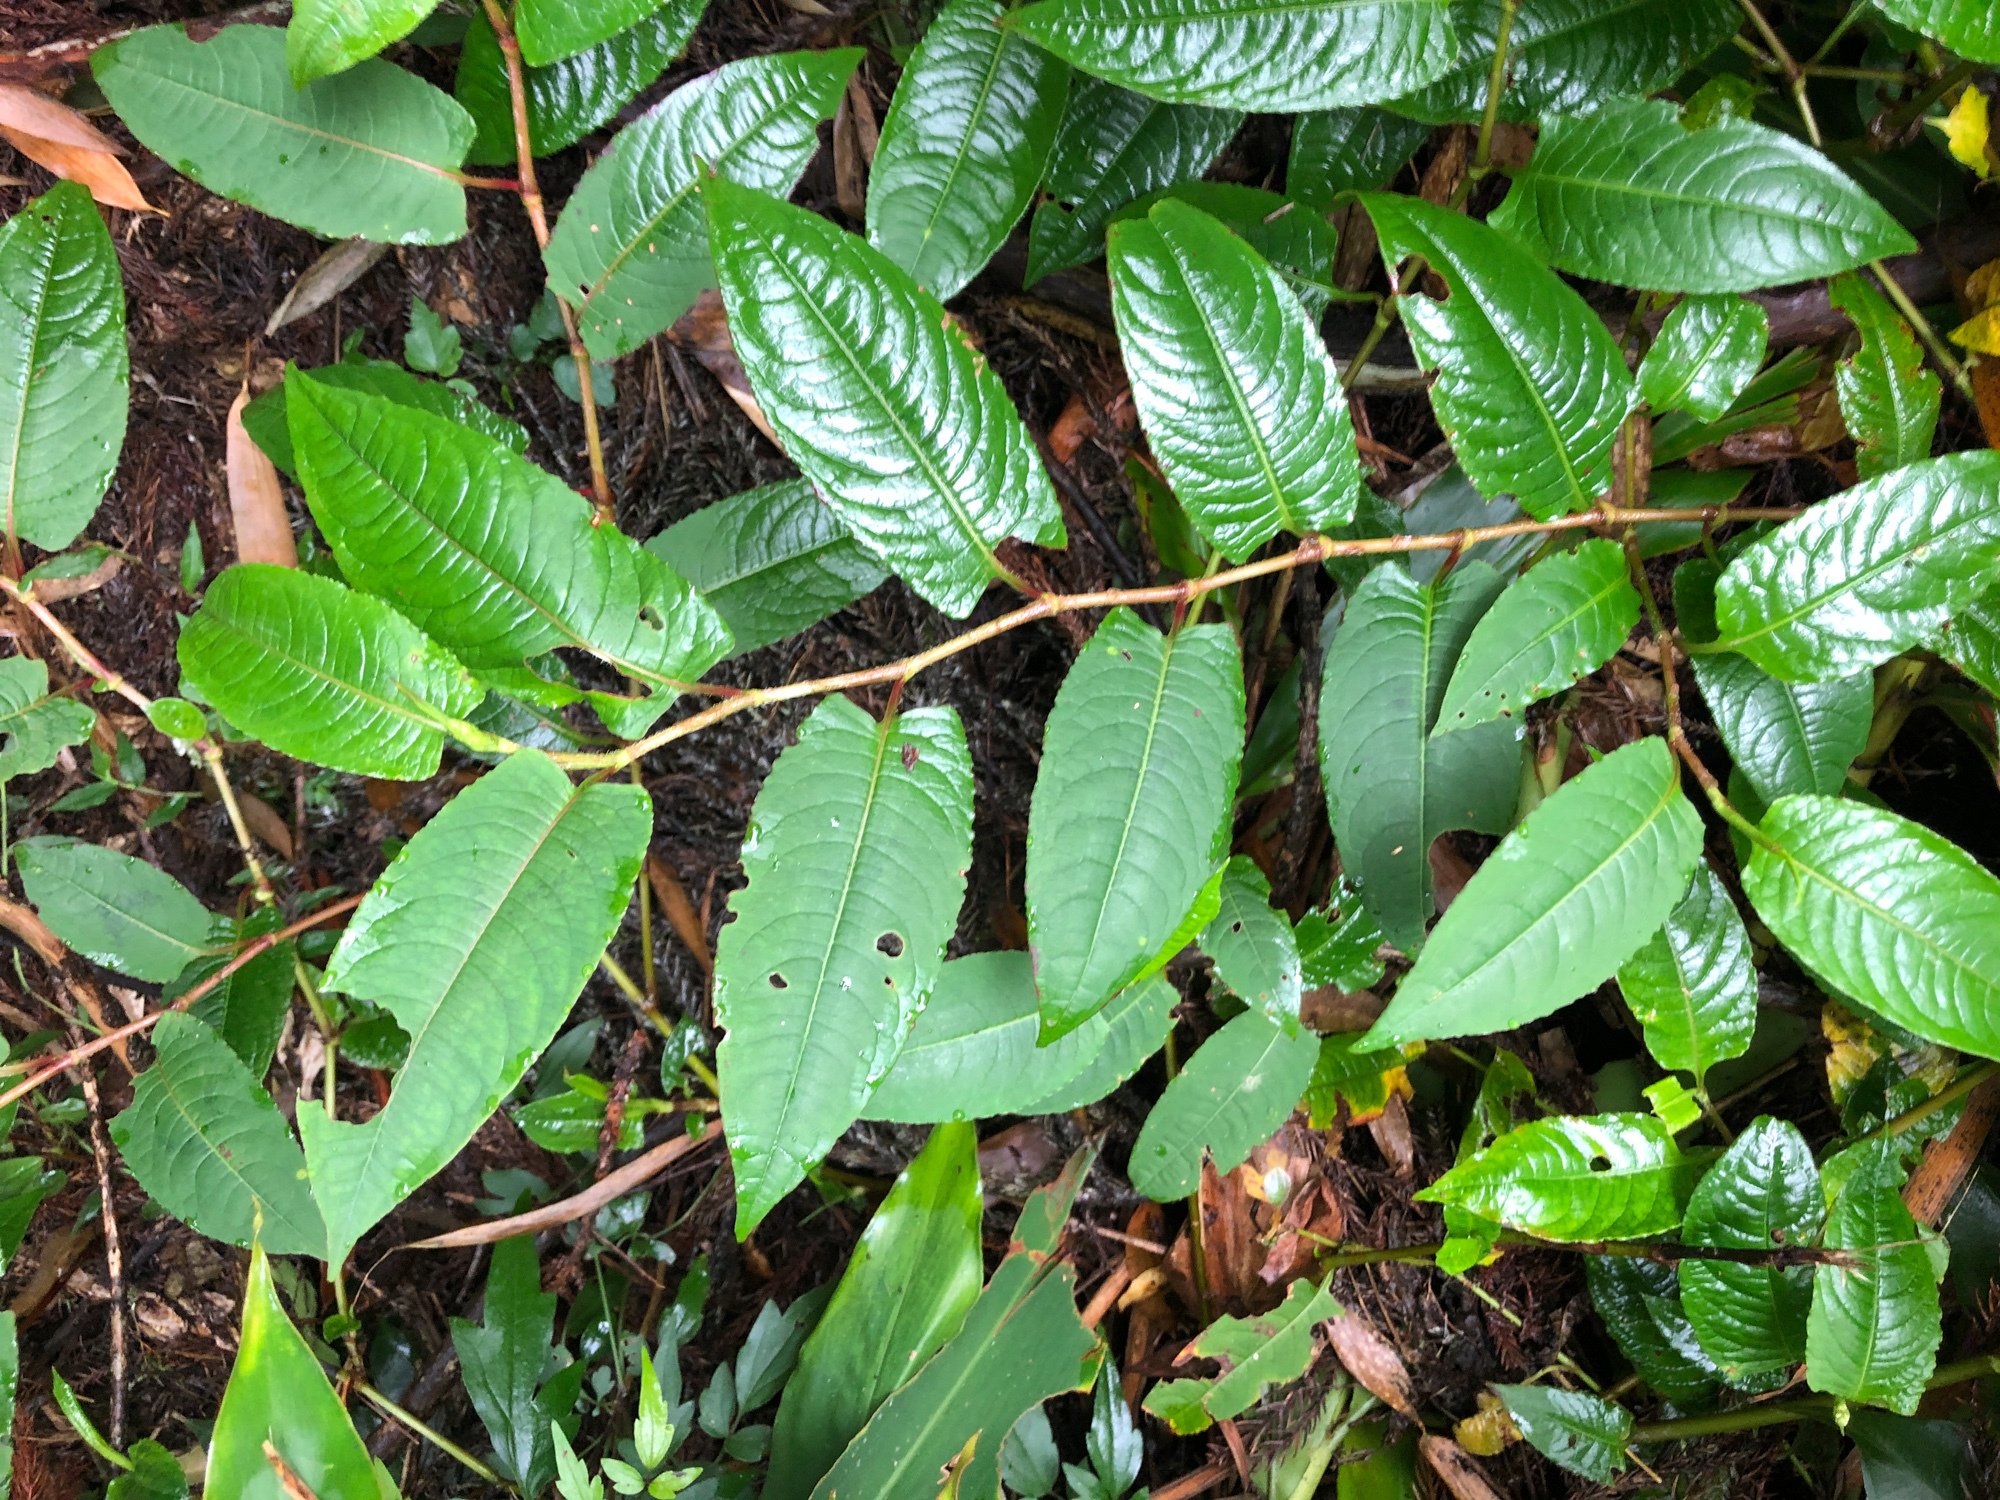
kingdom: Plantae
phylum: Tracheophyta
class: Magnoliopsida
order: Caryophyllales
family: Polygonaceae
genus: Persicaria
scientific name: Persicaria chinensis
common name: Chinese knotweed
